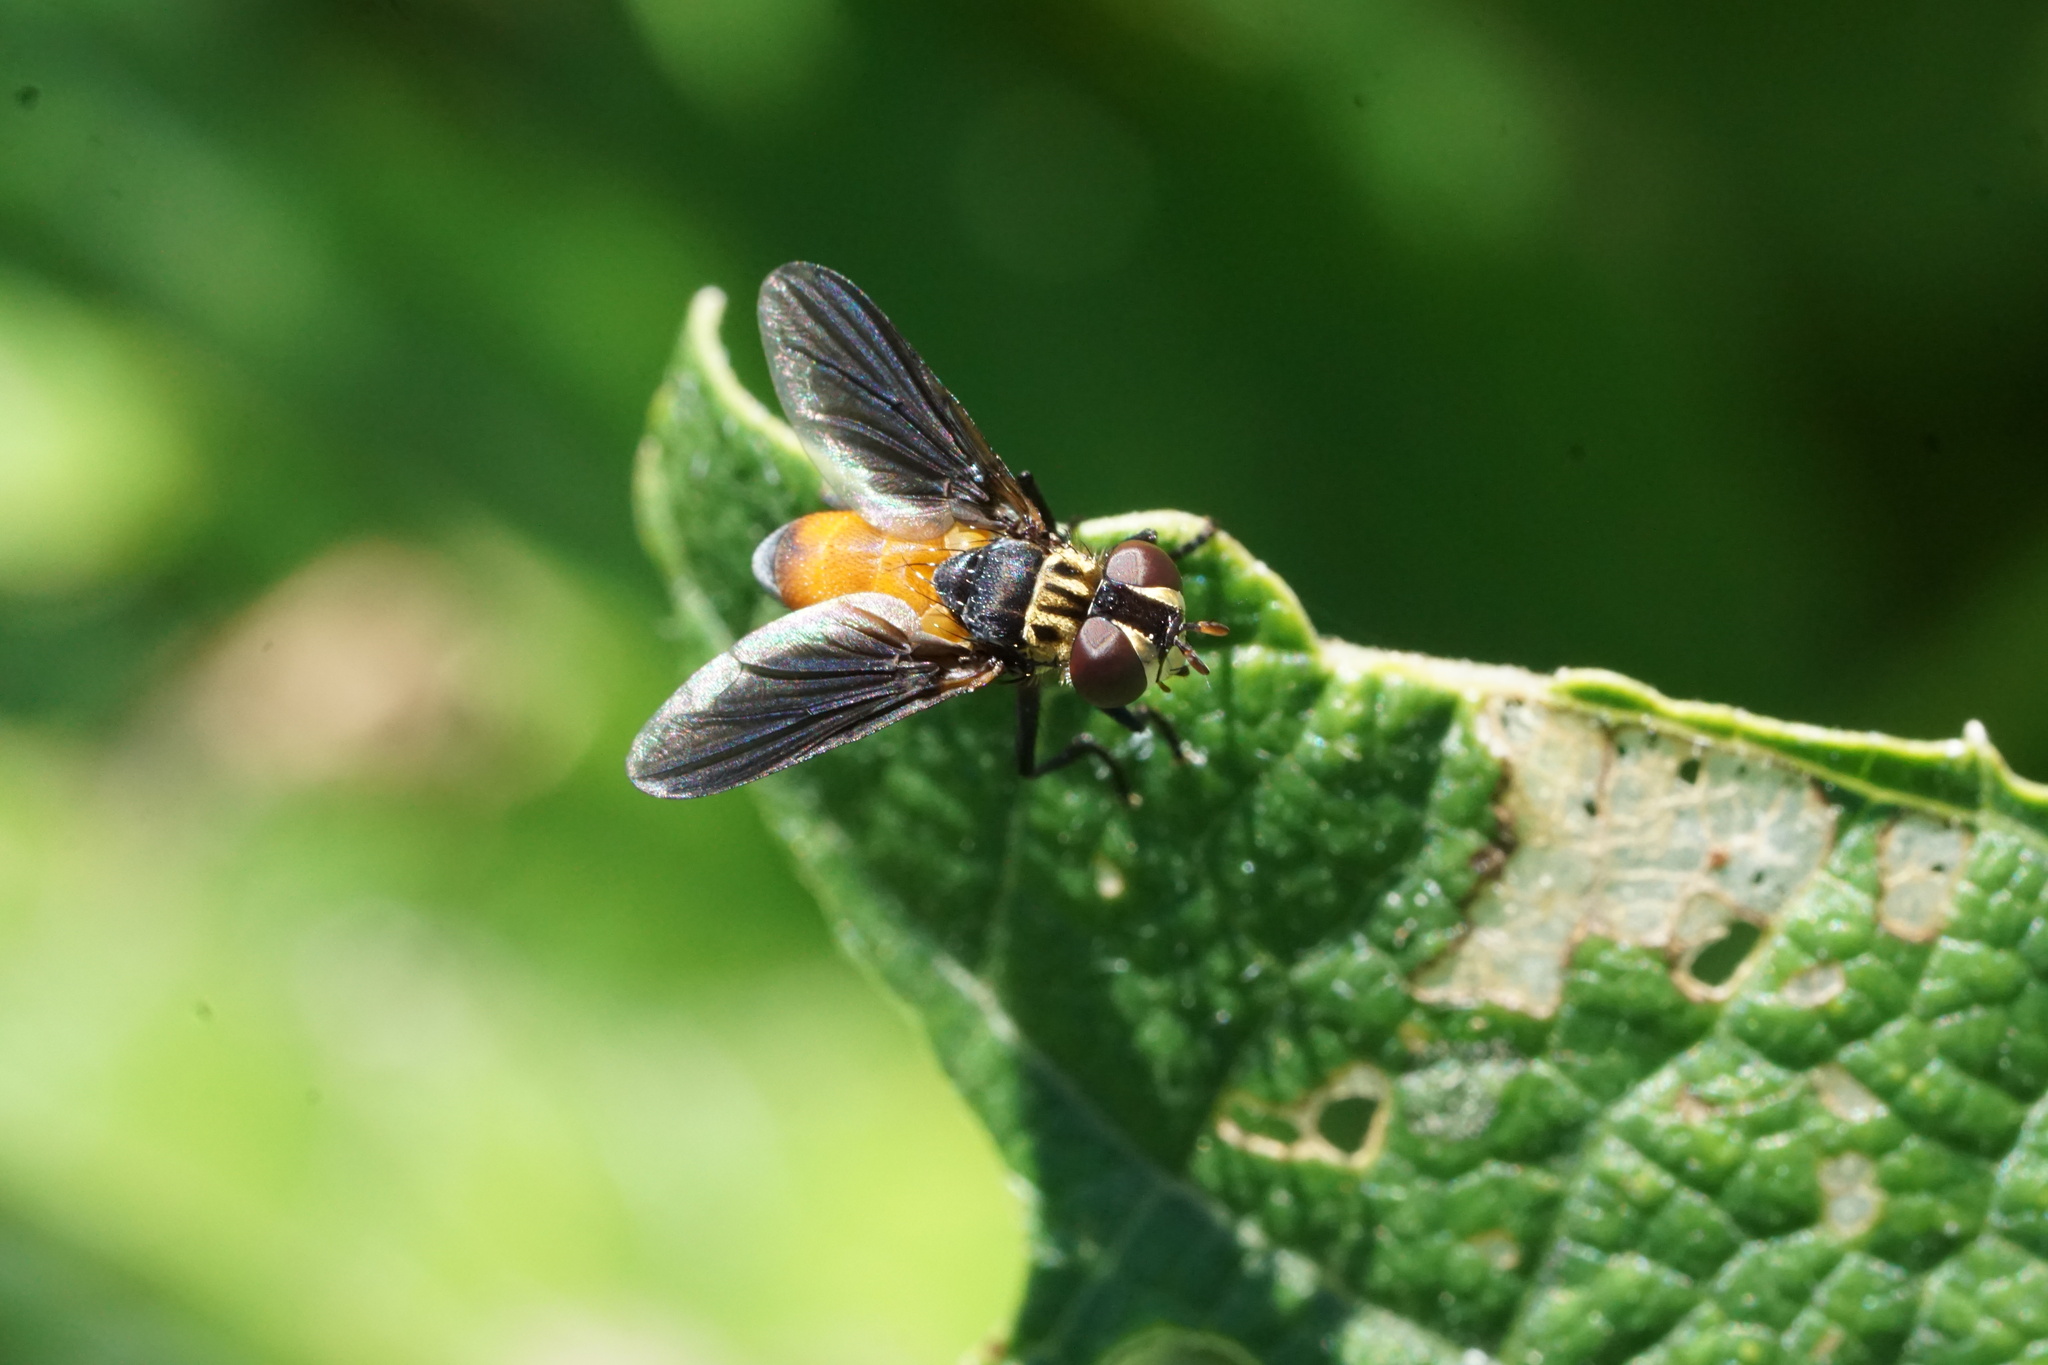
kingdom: Animalia
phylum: Arthropoda
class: Insecta
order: Diptera
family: Tachinidae
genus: Trichopoda
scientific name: Trichopoda pennipes
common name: Tachinid fly
